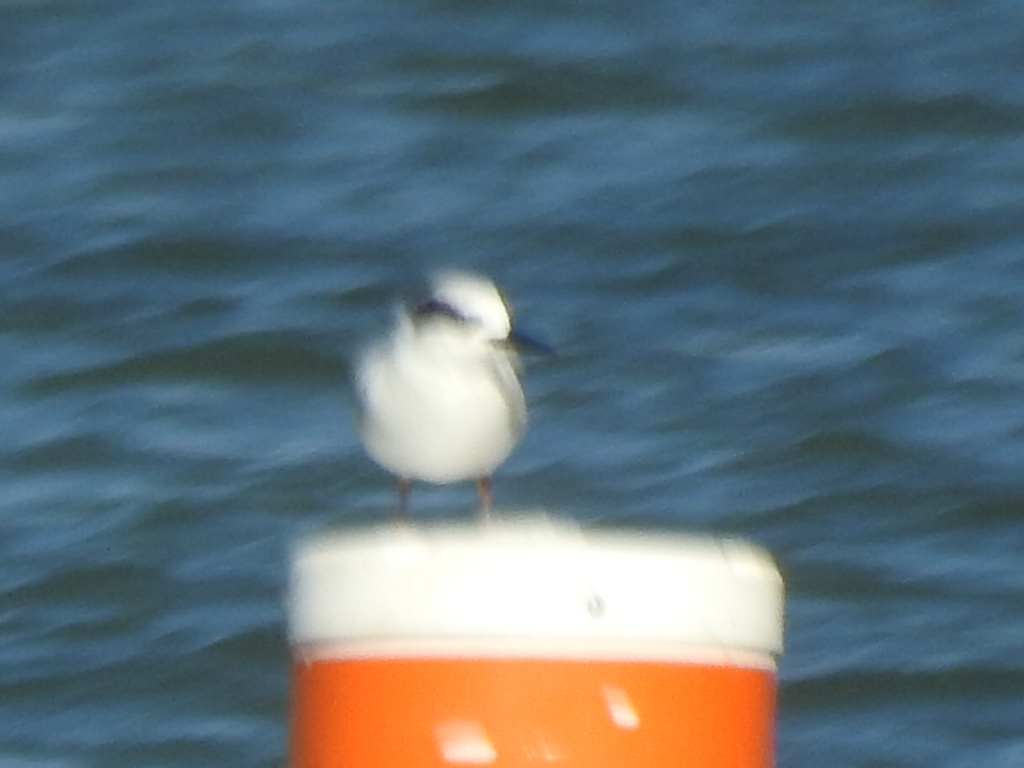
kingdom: Animalia
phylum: Chordata
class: Aves
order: Charadriiformes
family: Laridae
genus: Sterna
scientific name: Sterna forsteri
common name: Forster's tern
